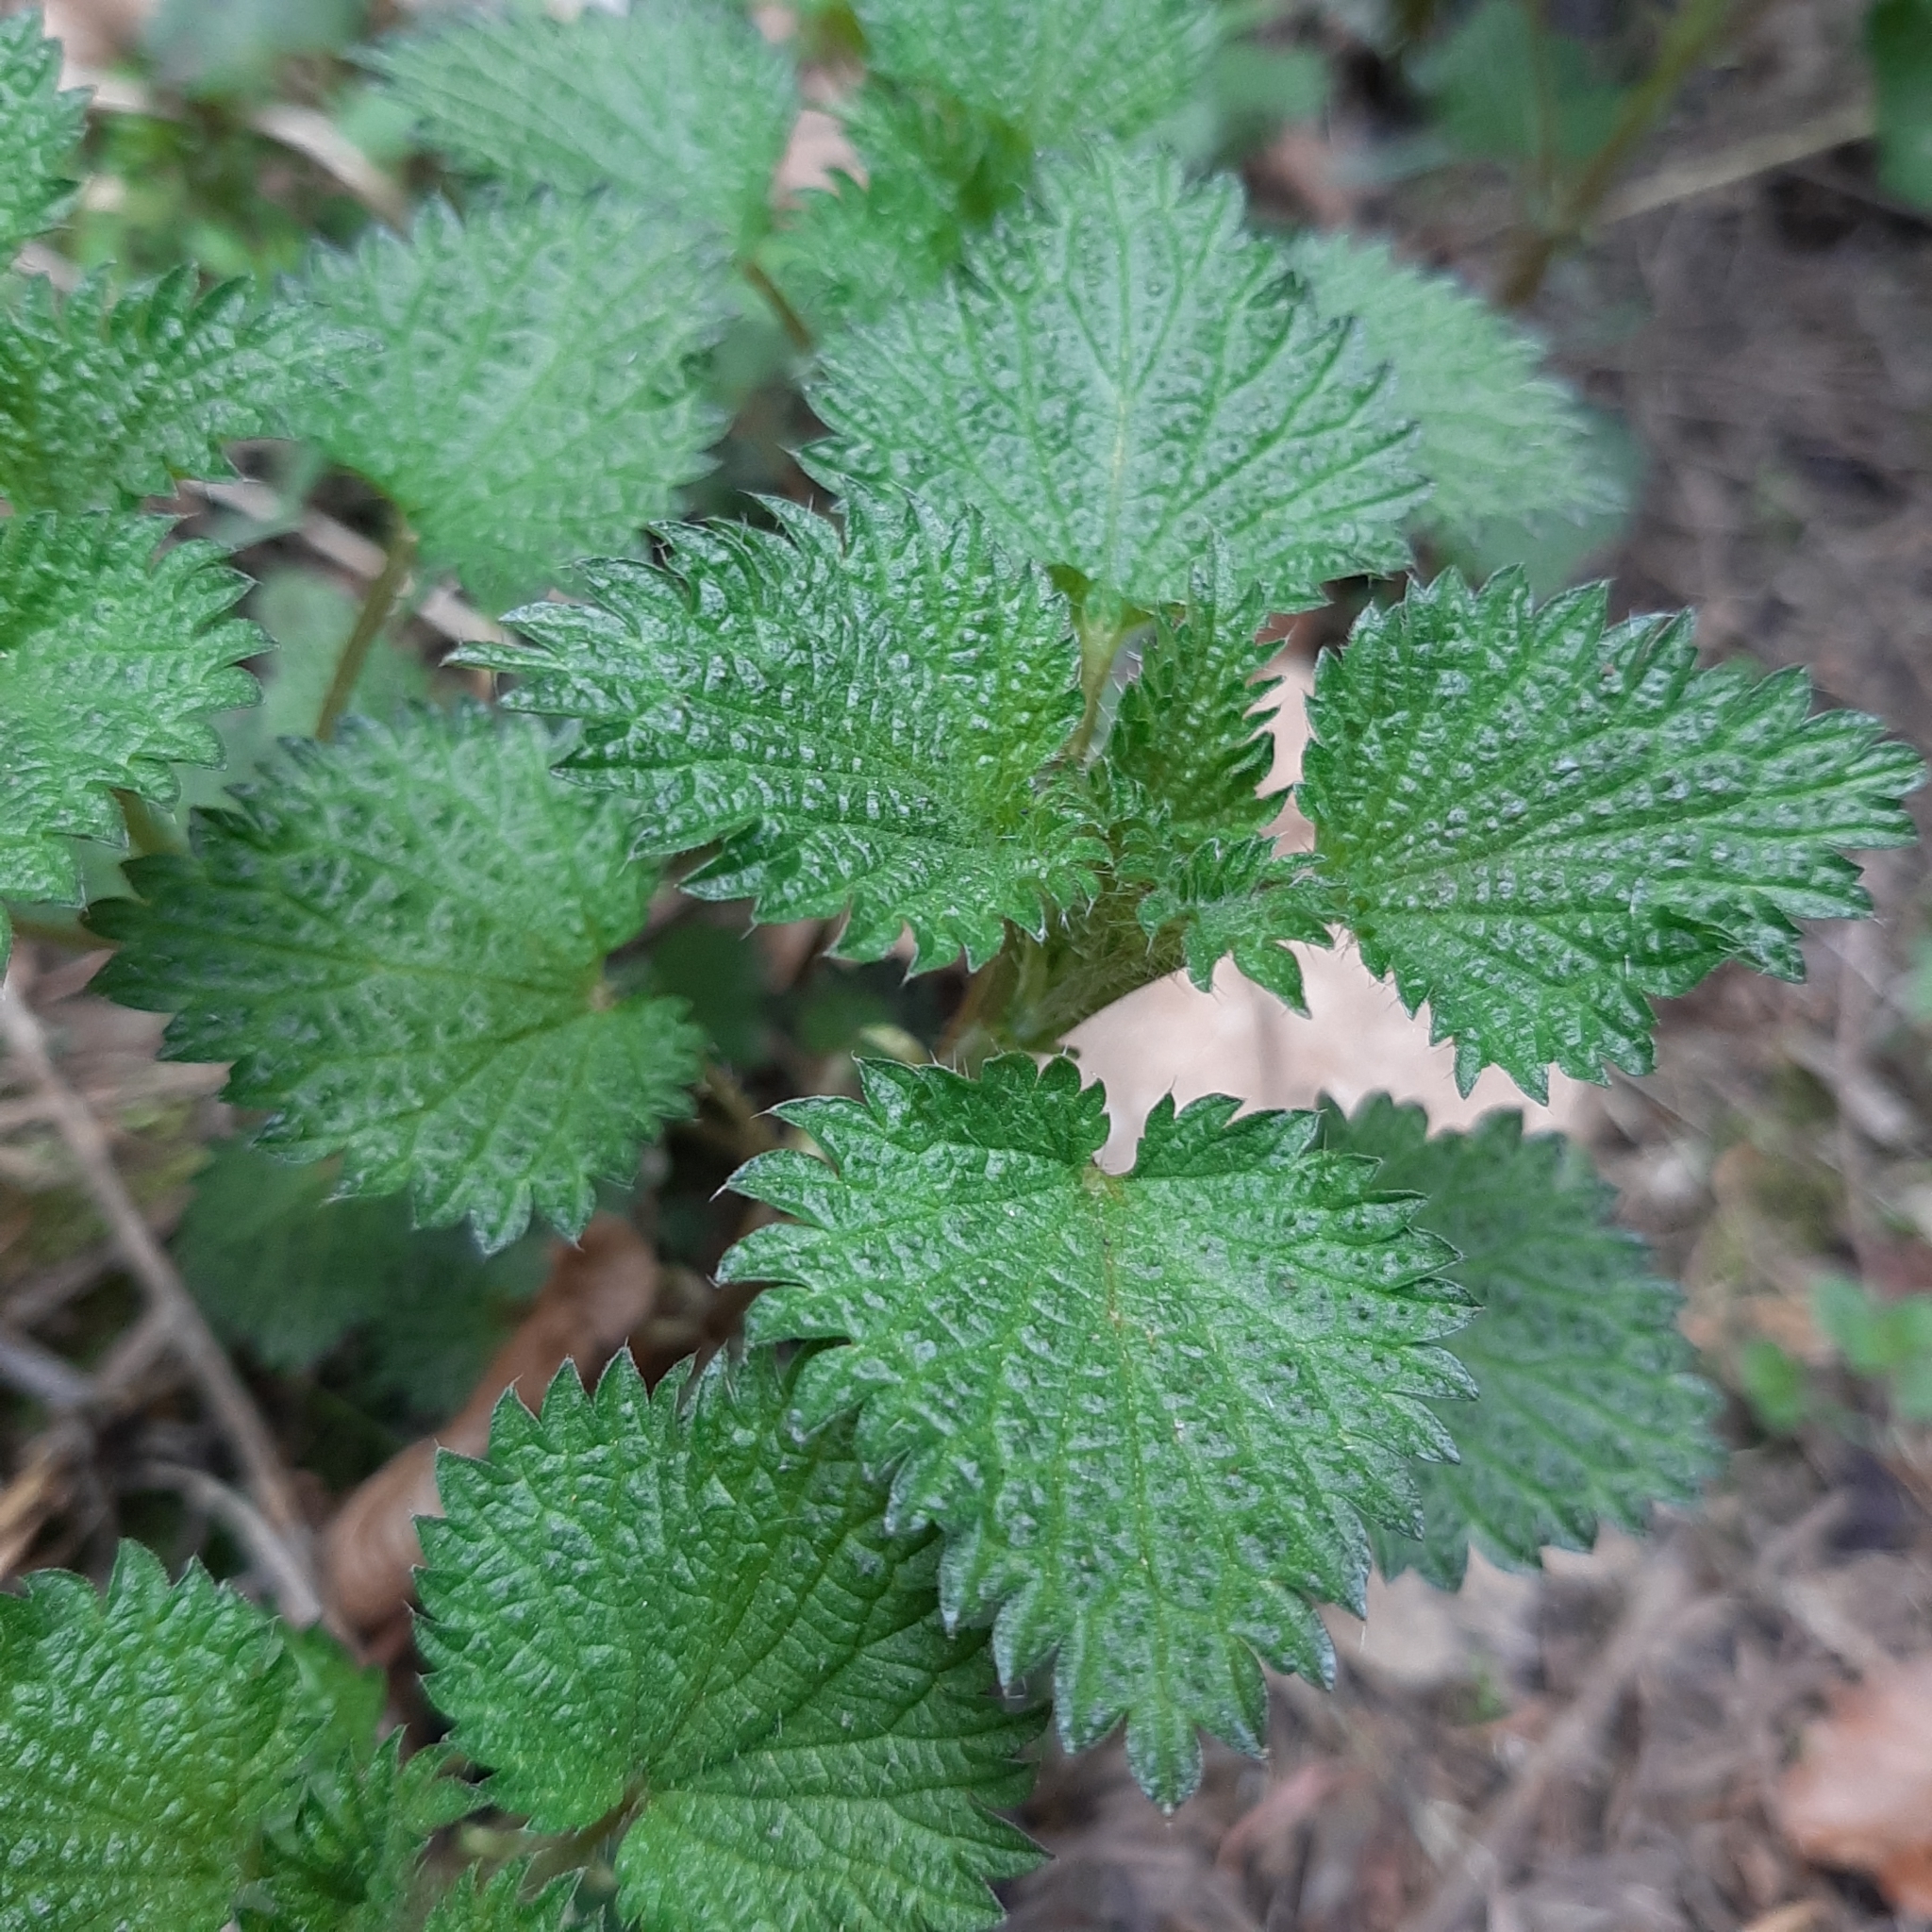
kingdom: Plantae
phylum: Tracheophyta
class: Magnoliopsida
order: Rosales
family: Urticaceae
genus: Urtica
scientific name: Urtica dioica
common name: Common nettle
